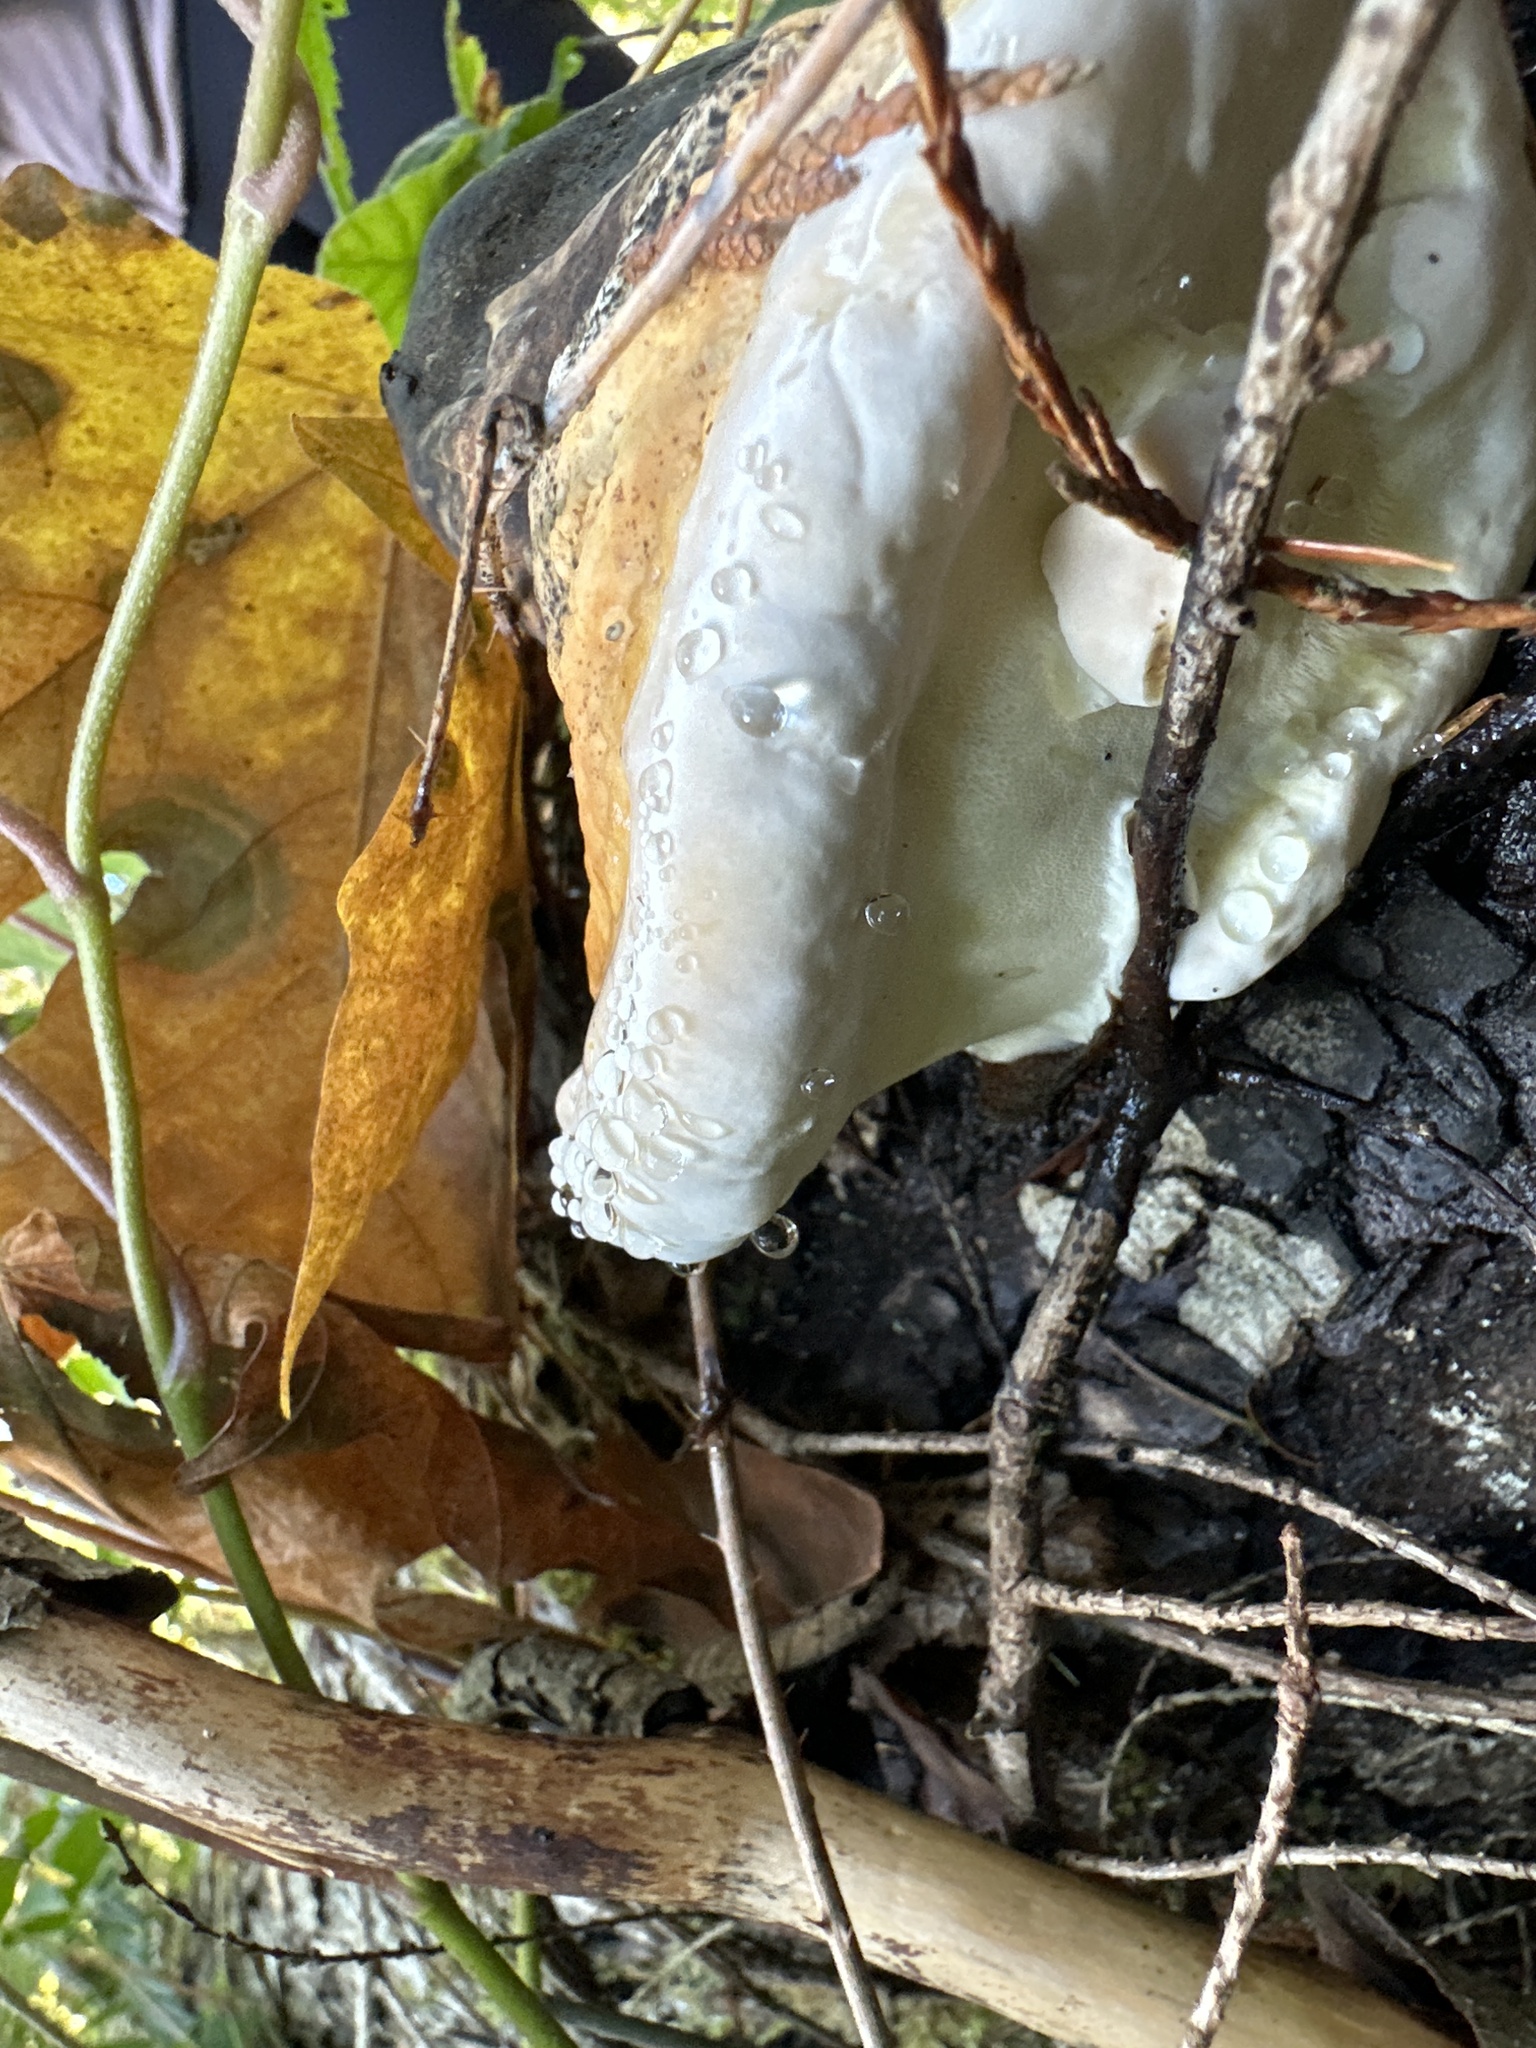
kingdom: Fungi
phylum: Basidiomycota
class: Agaricomycetes
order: Polyporales
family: Fomitopsidaceae
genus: Fomitopsis
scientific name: Fomitopsis mounceae
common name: Northern red belt
